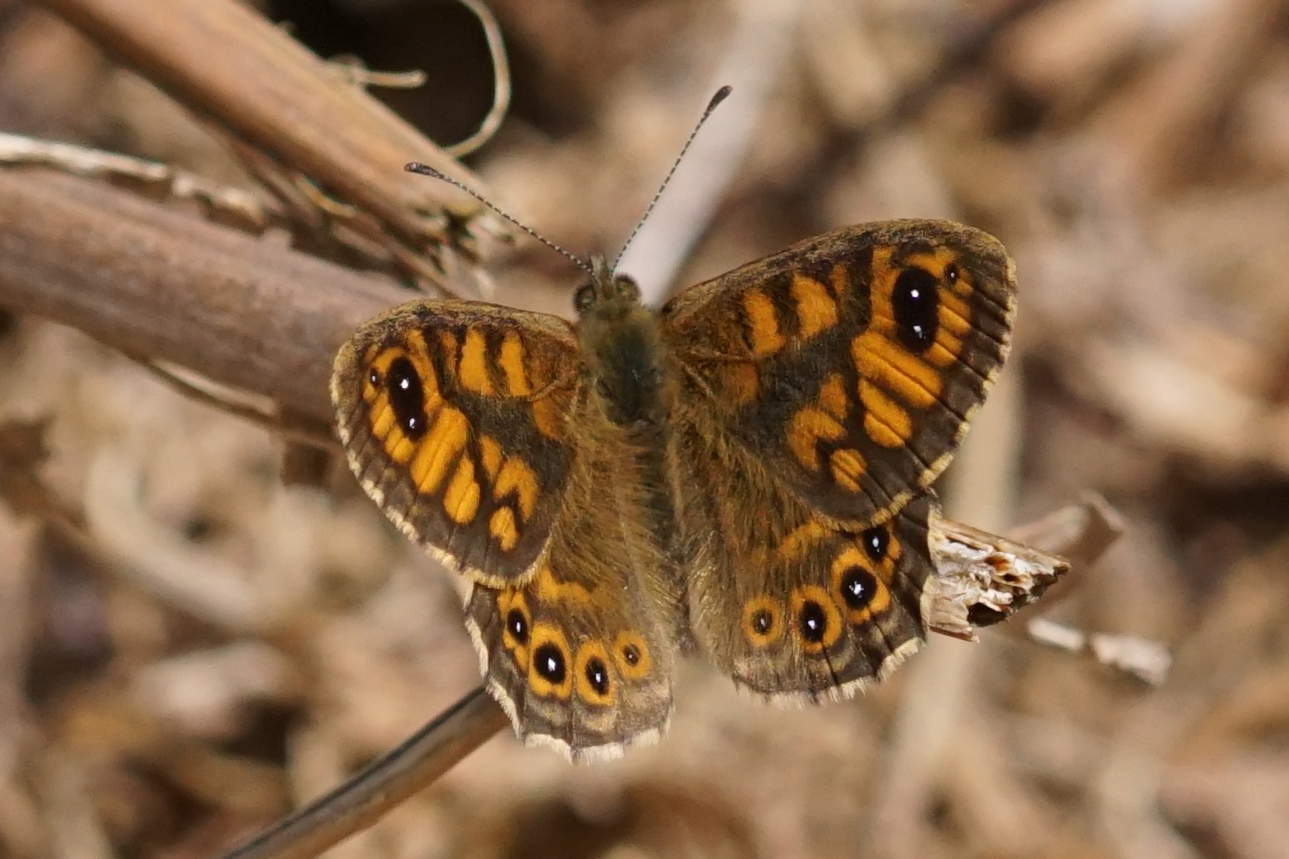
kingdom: Animalia
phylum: Arthropoda
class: Insecta
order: Lepidoptera
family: Nymphalidae
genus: Pararge
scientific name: Pararge Lasiommata megera
